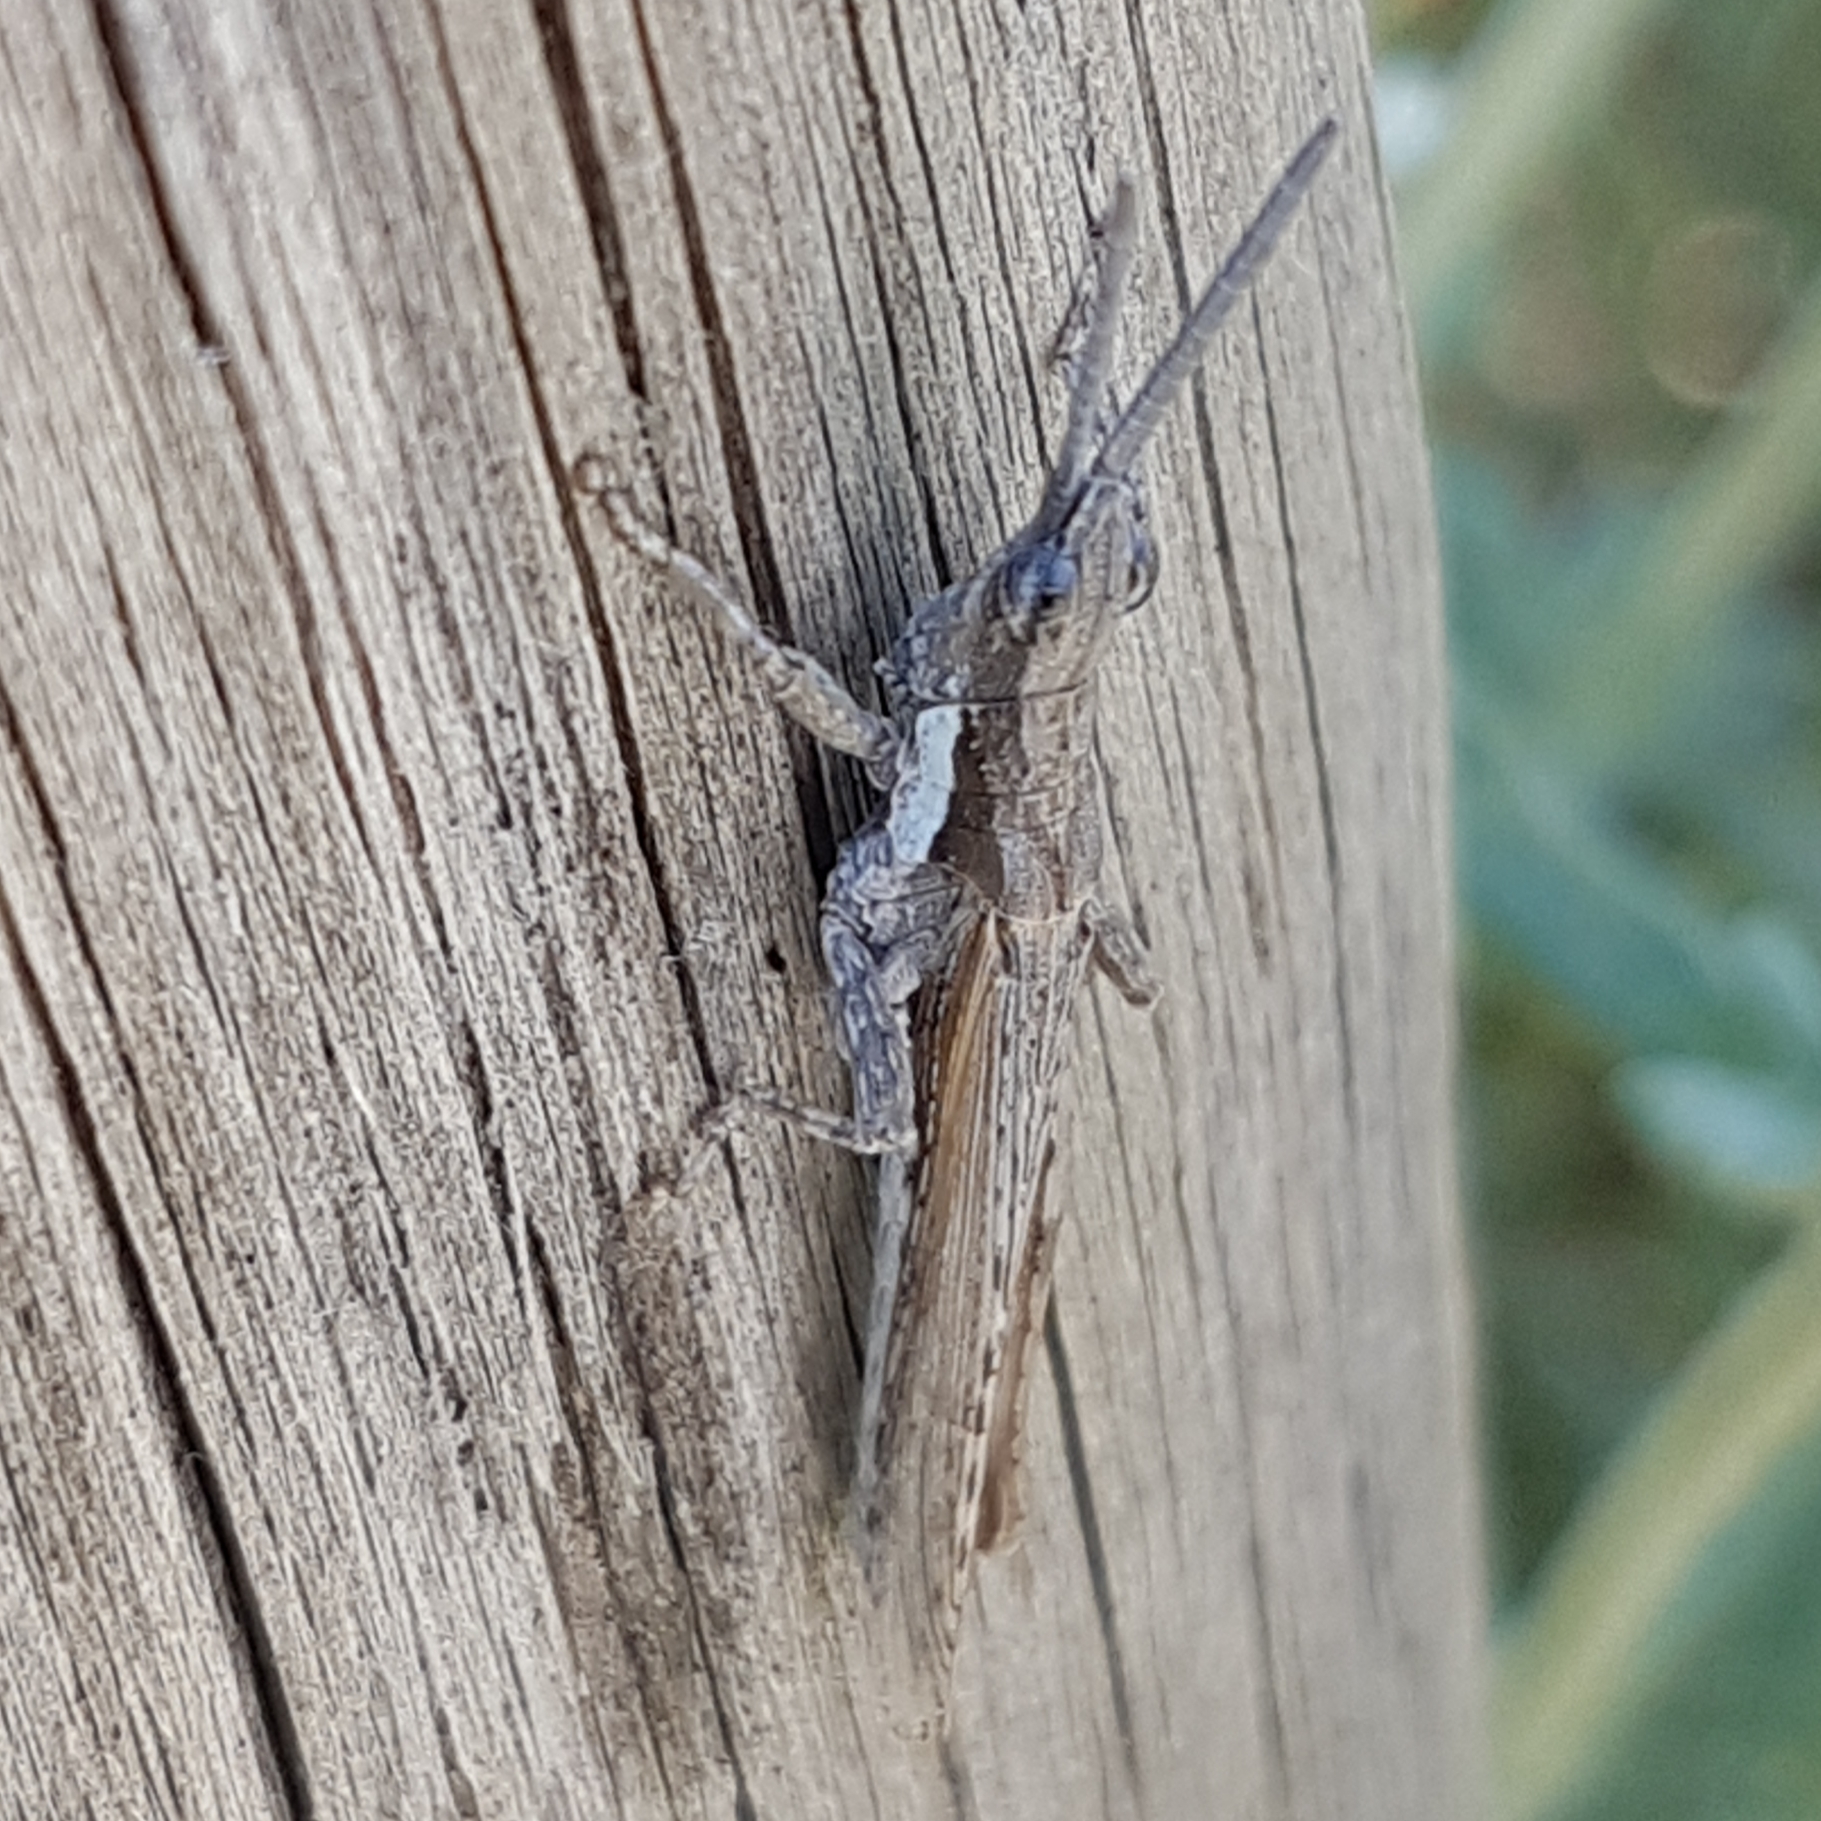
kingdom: Animalia
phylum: Arthropoda
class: Insecta
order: Orthoptera
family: Pyrgomorphidae
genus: Pyrgomorpha
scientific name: Pyrgomorpha conica
